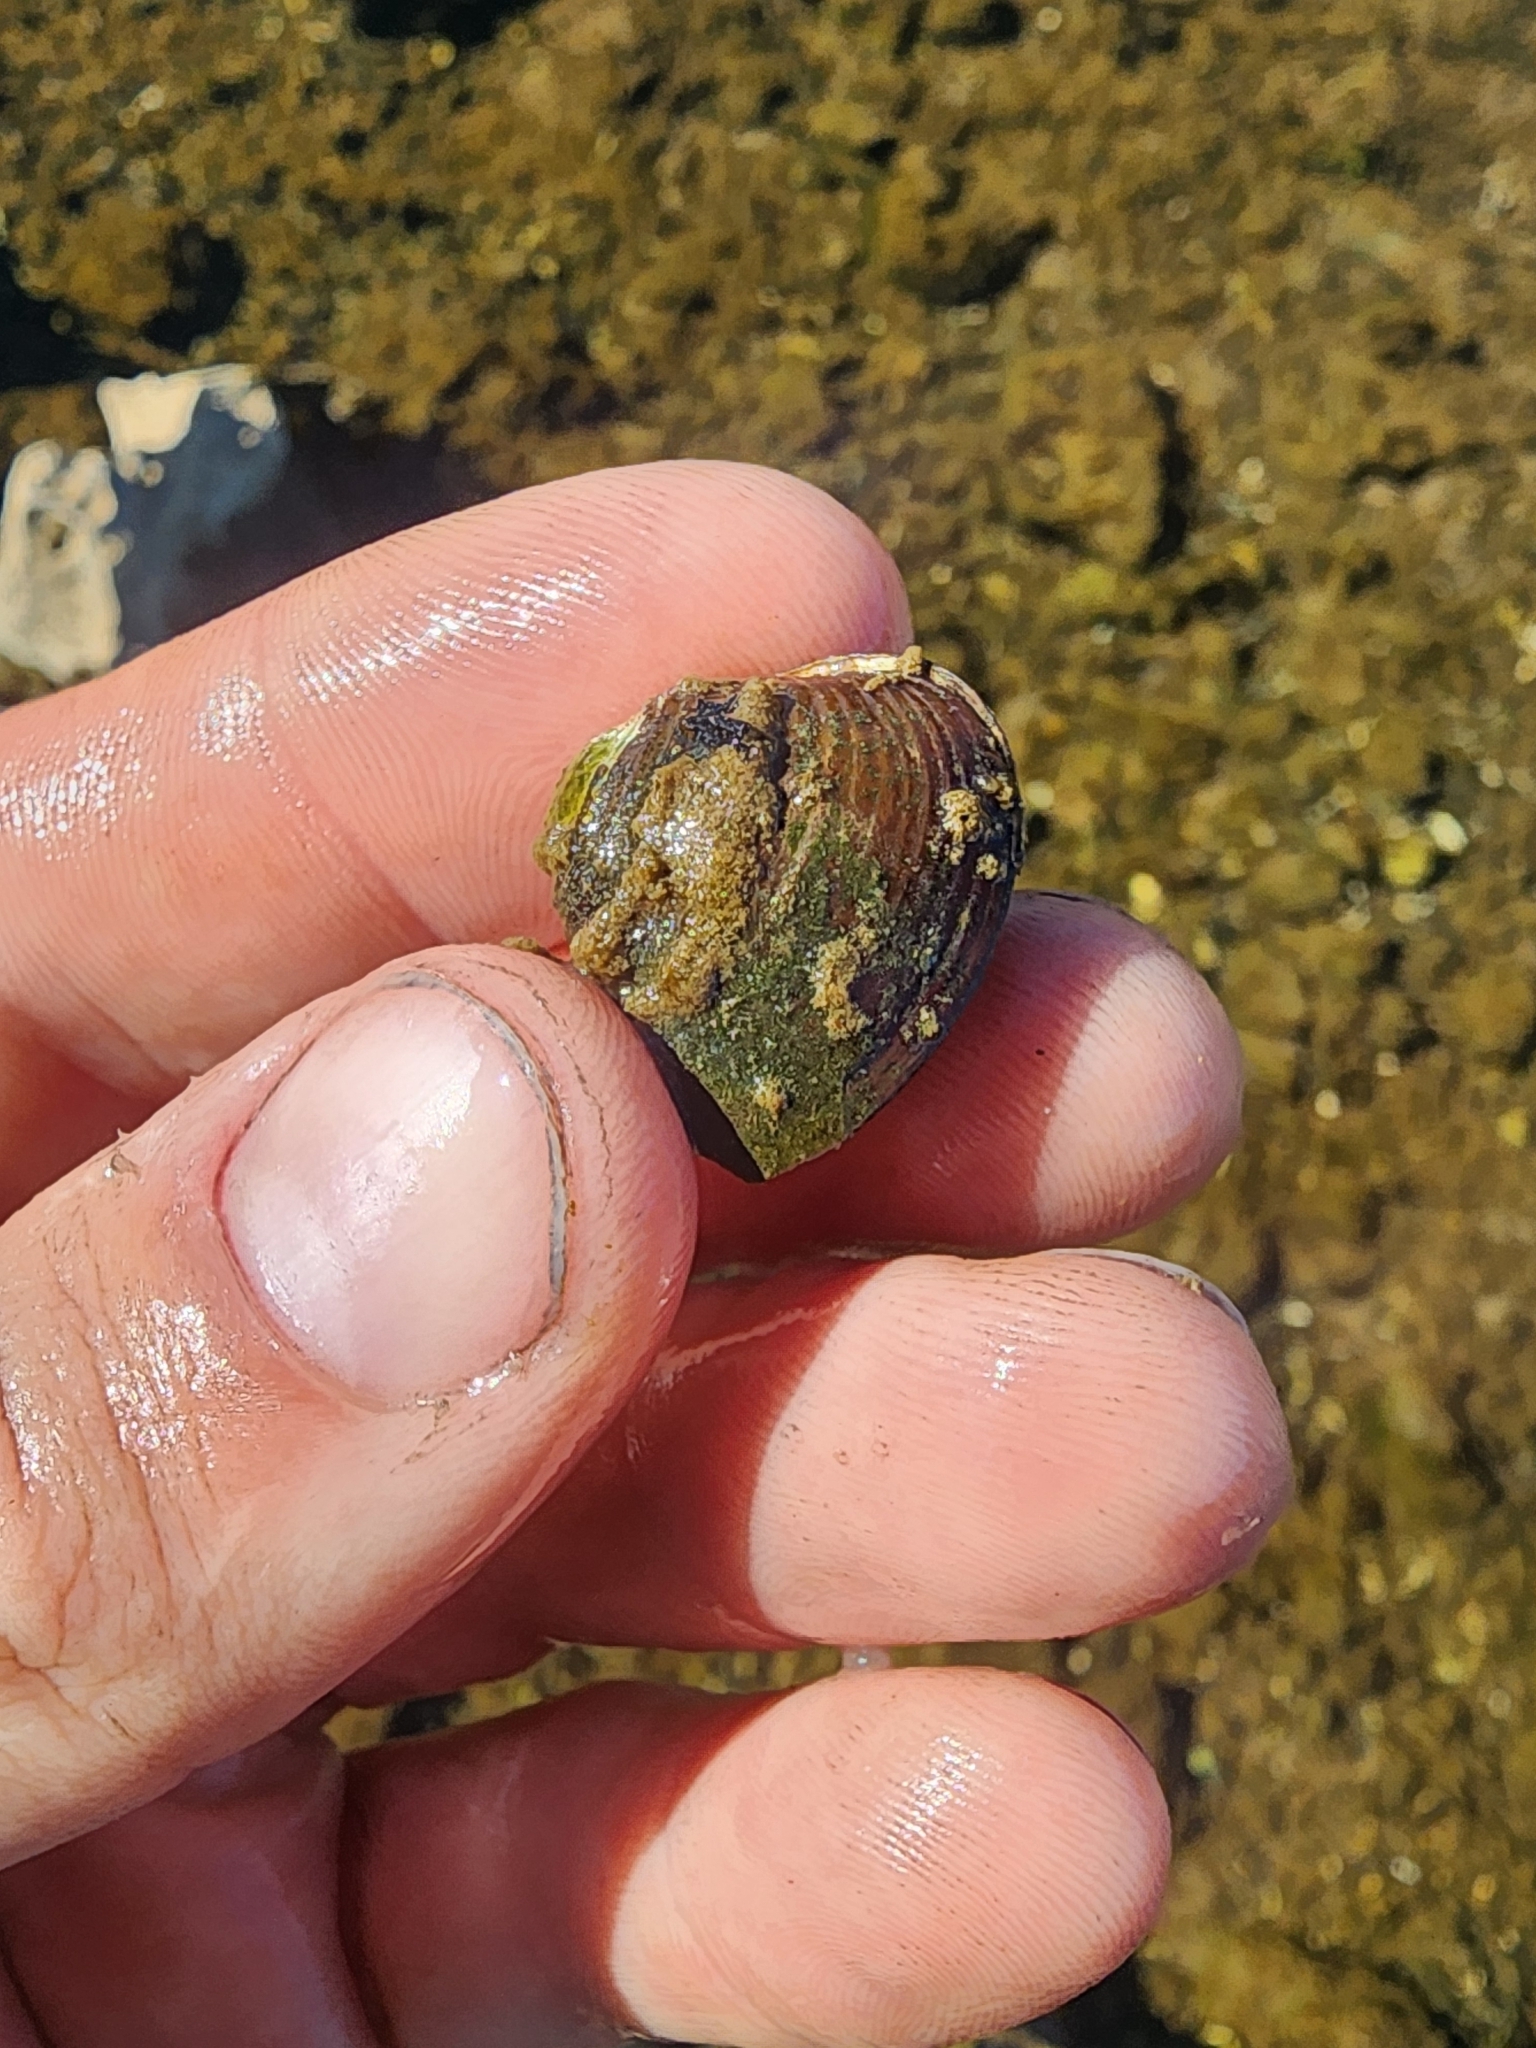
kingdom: Animalia
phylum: Mollusca
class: Bivalvia
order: Venerida
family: Cyrenidae
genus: Corbicula
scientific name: Corbicula fluminea
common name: Asian clam
